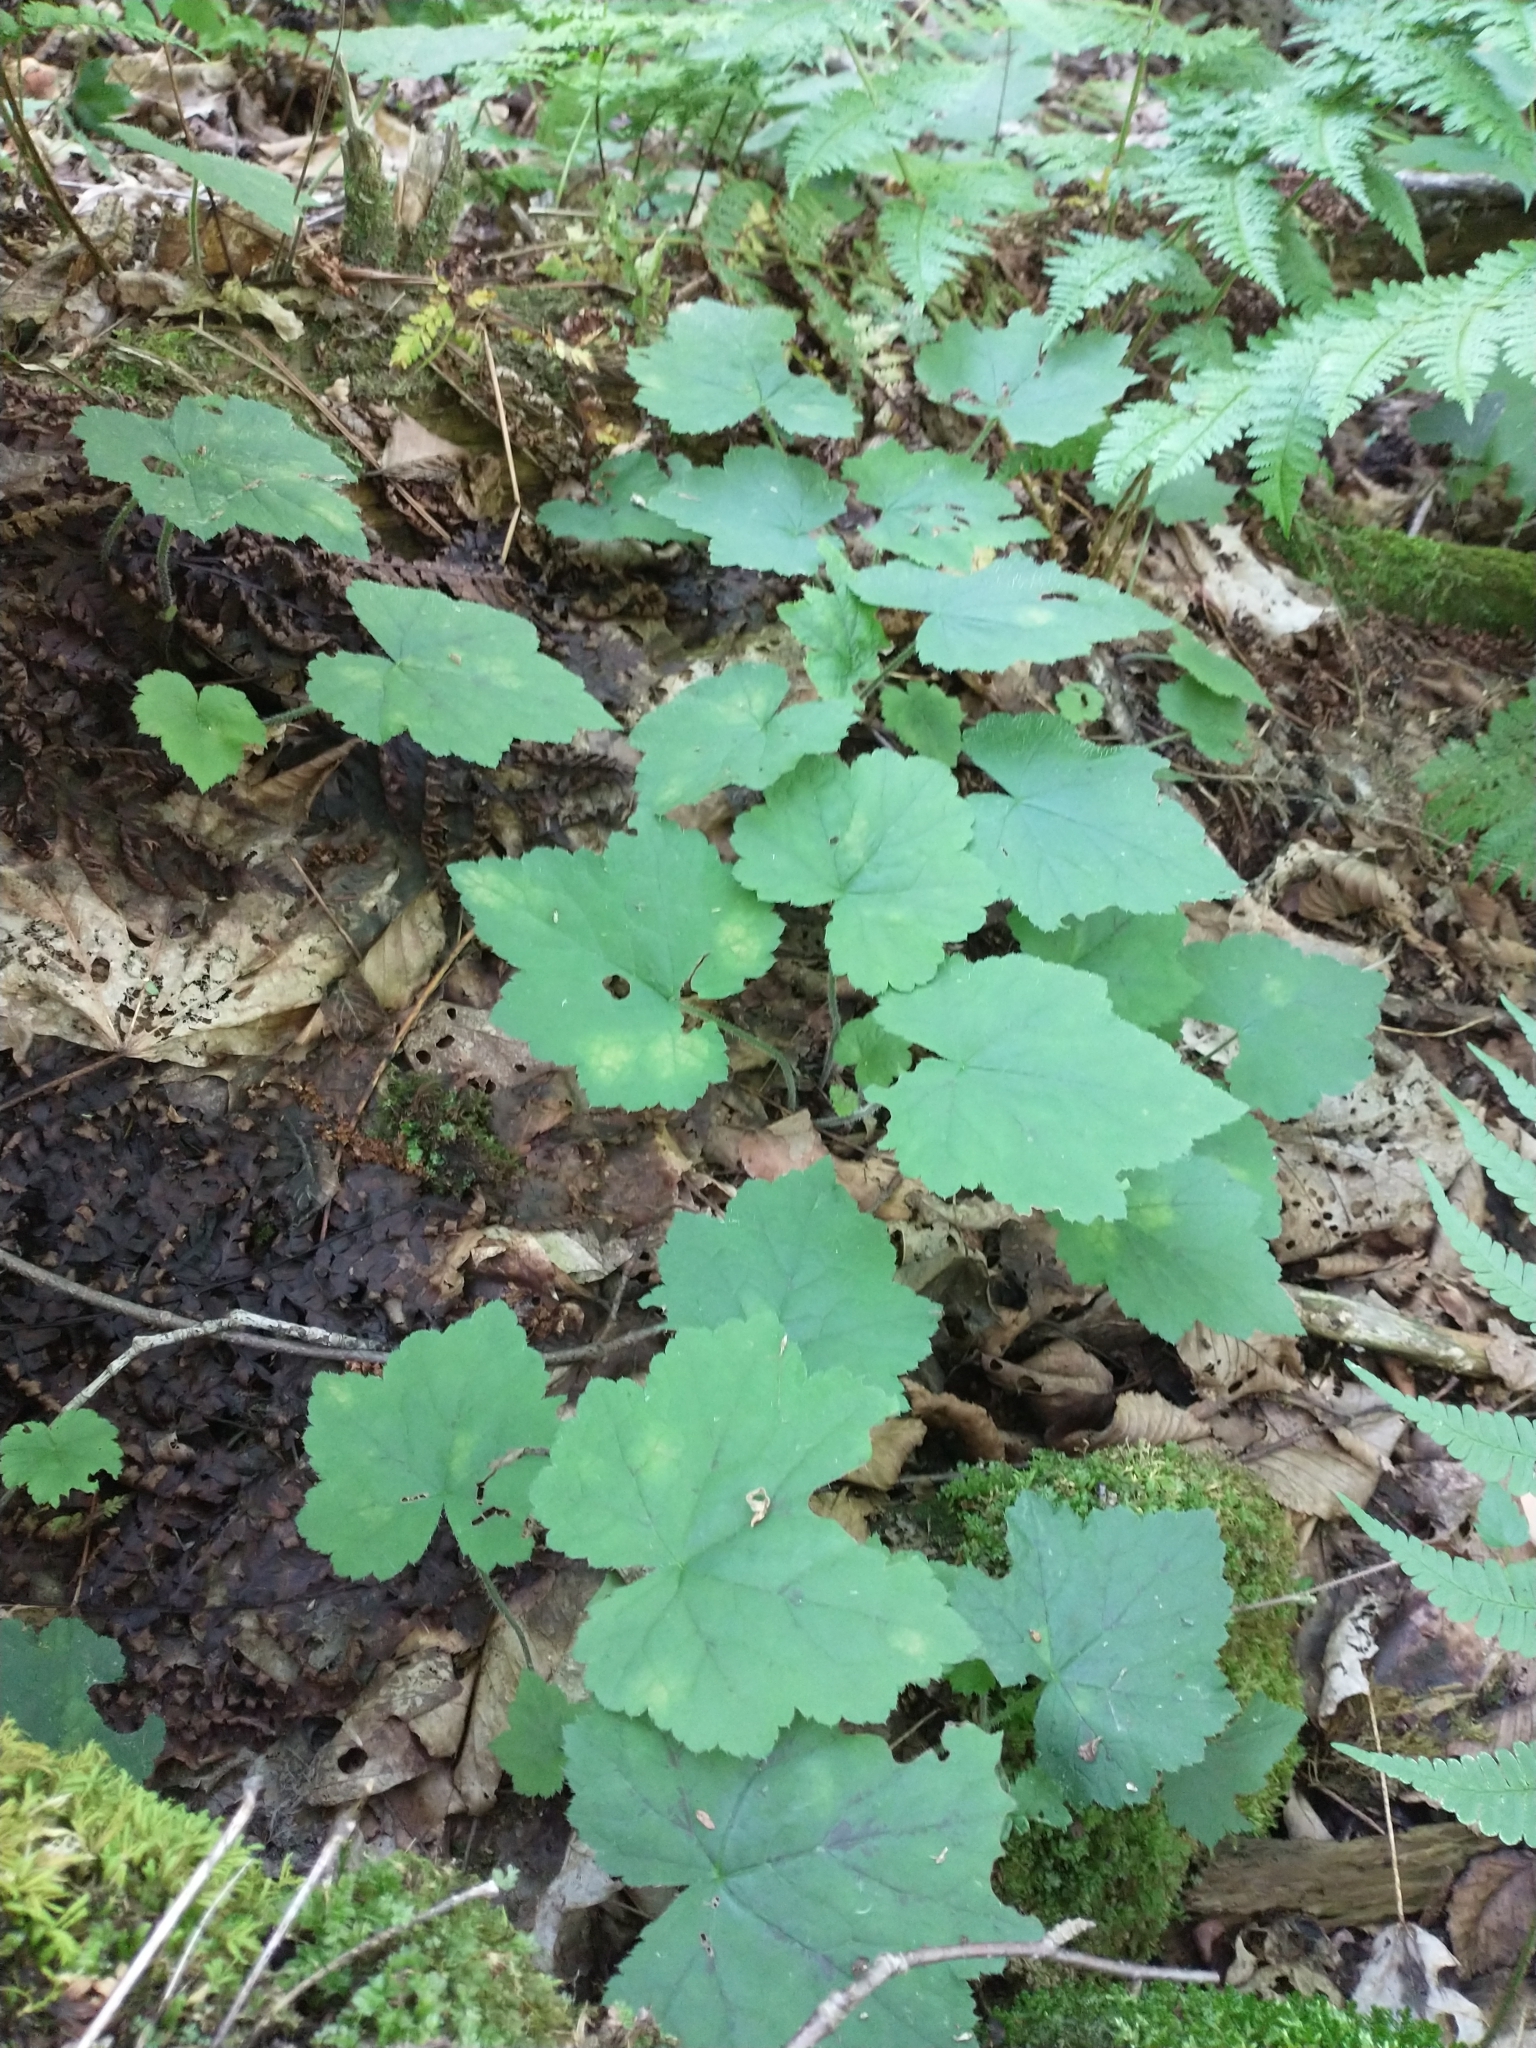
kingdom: Plantae
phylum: Tracheophyta
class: Magnoliopsida
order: Saxifragales
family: Saxifragaceae
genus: Tiarella
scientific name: Tiarella stolonifera
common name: Stoloniferous foamflower
